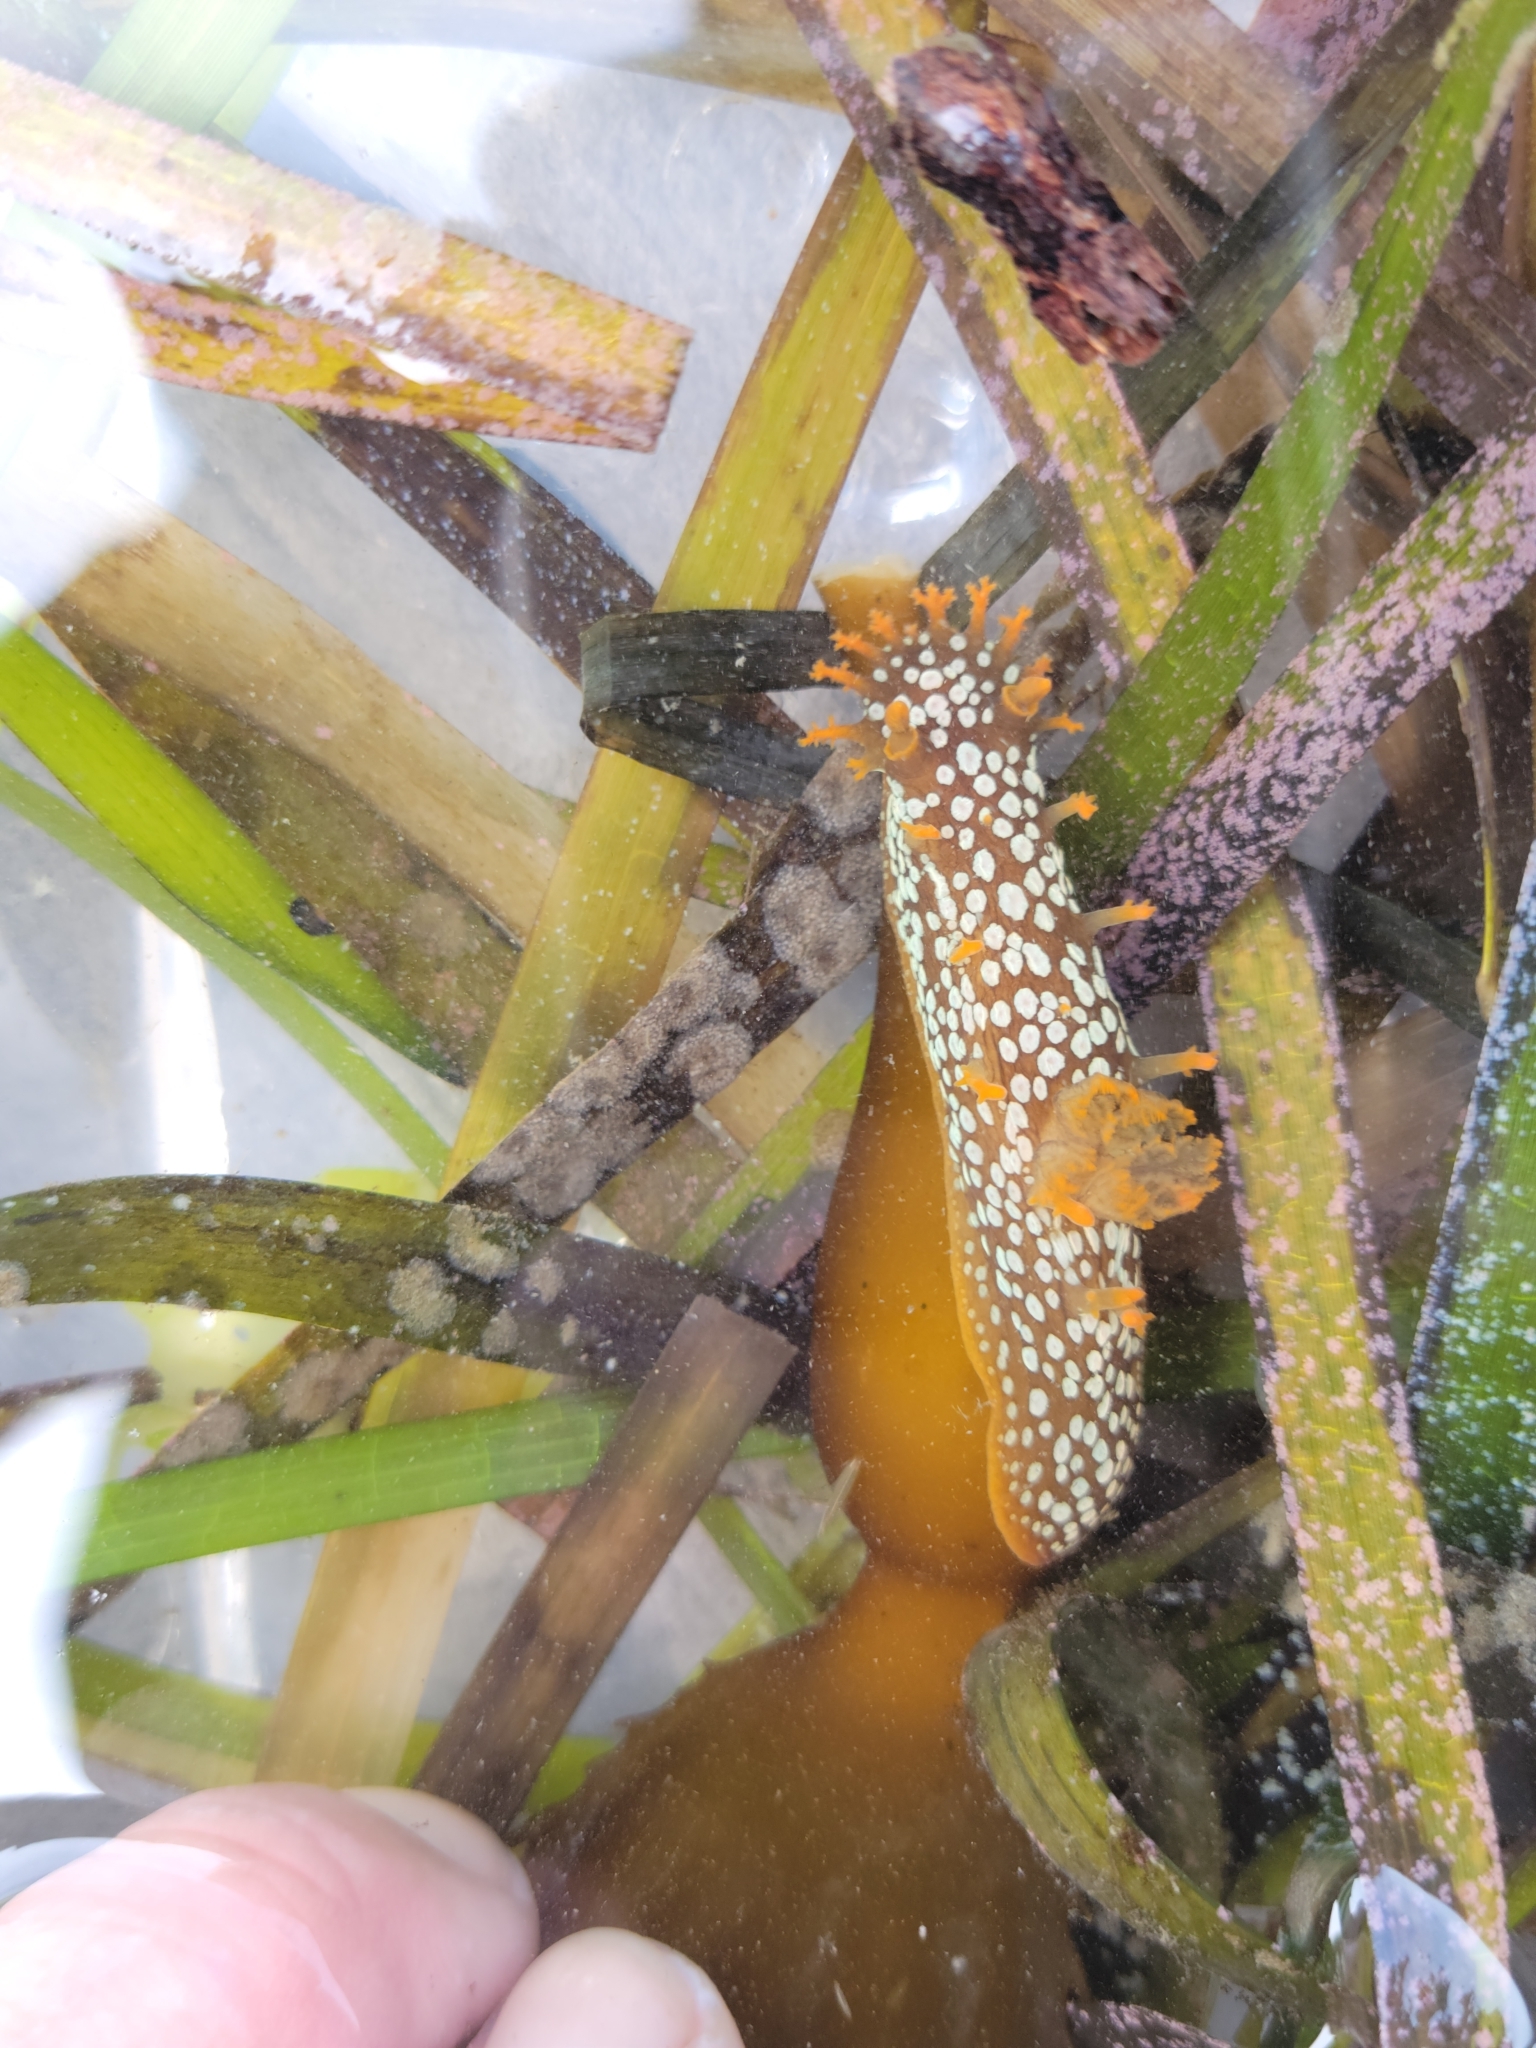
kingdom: Animalia
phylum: Mollusca
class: Gastropoda
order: Nudibranchia
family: Polyceridae
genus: Triopha
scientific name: Triopha maculata
